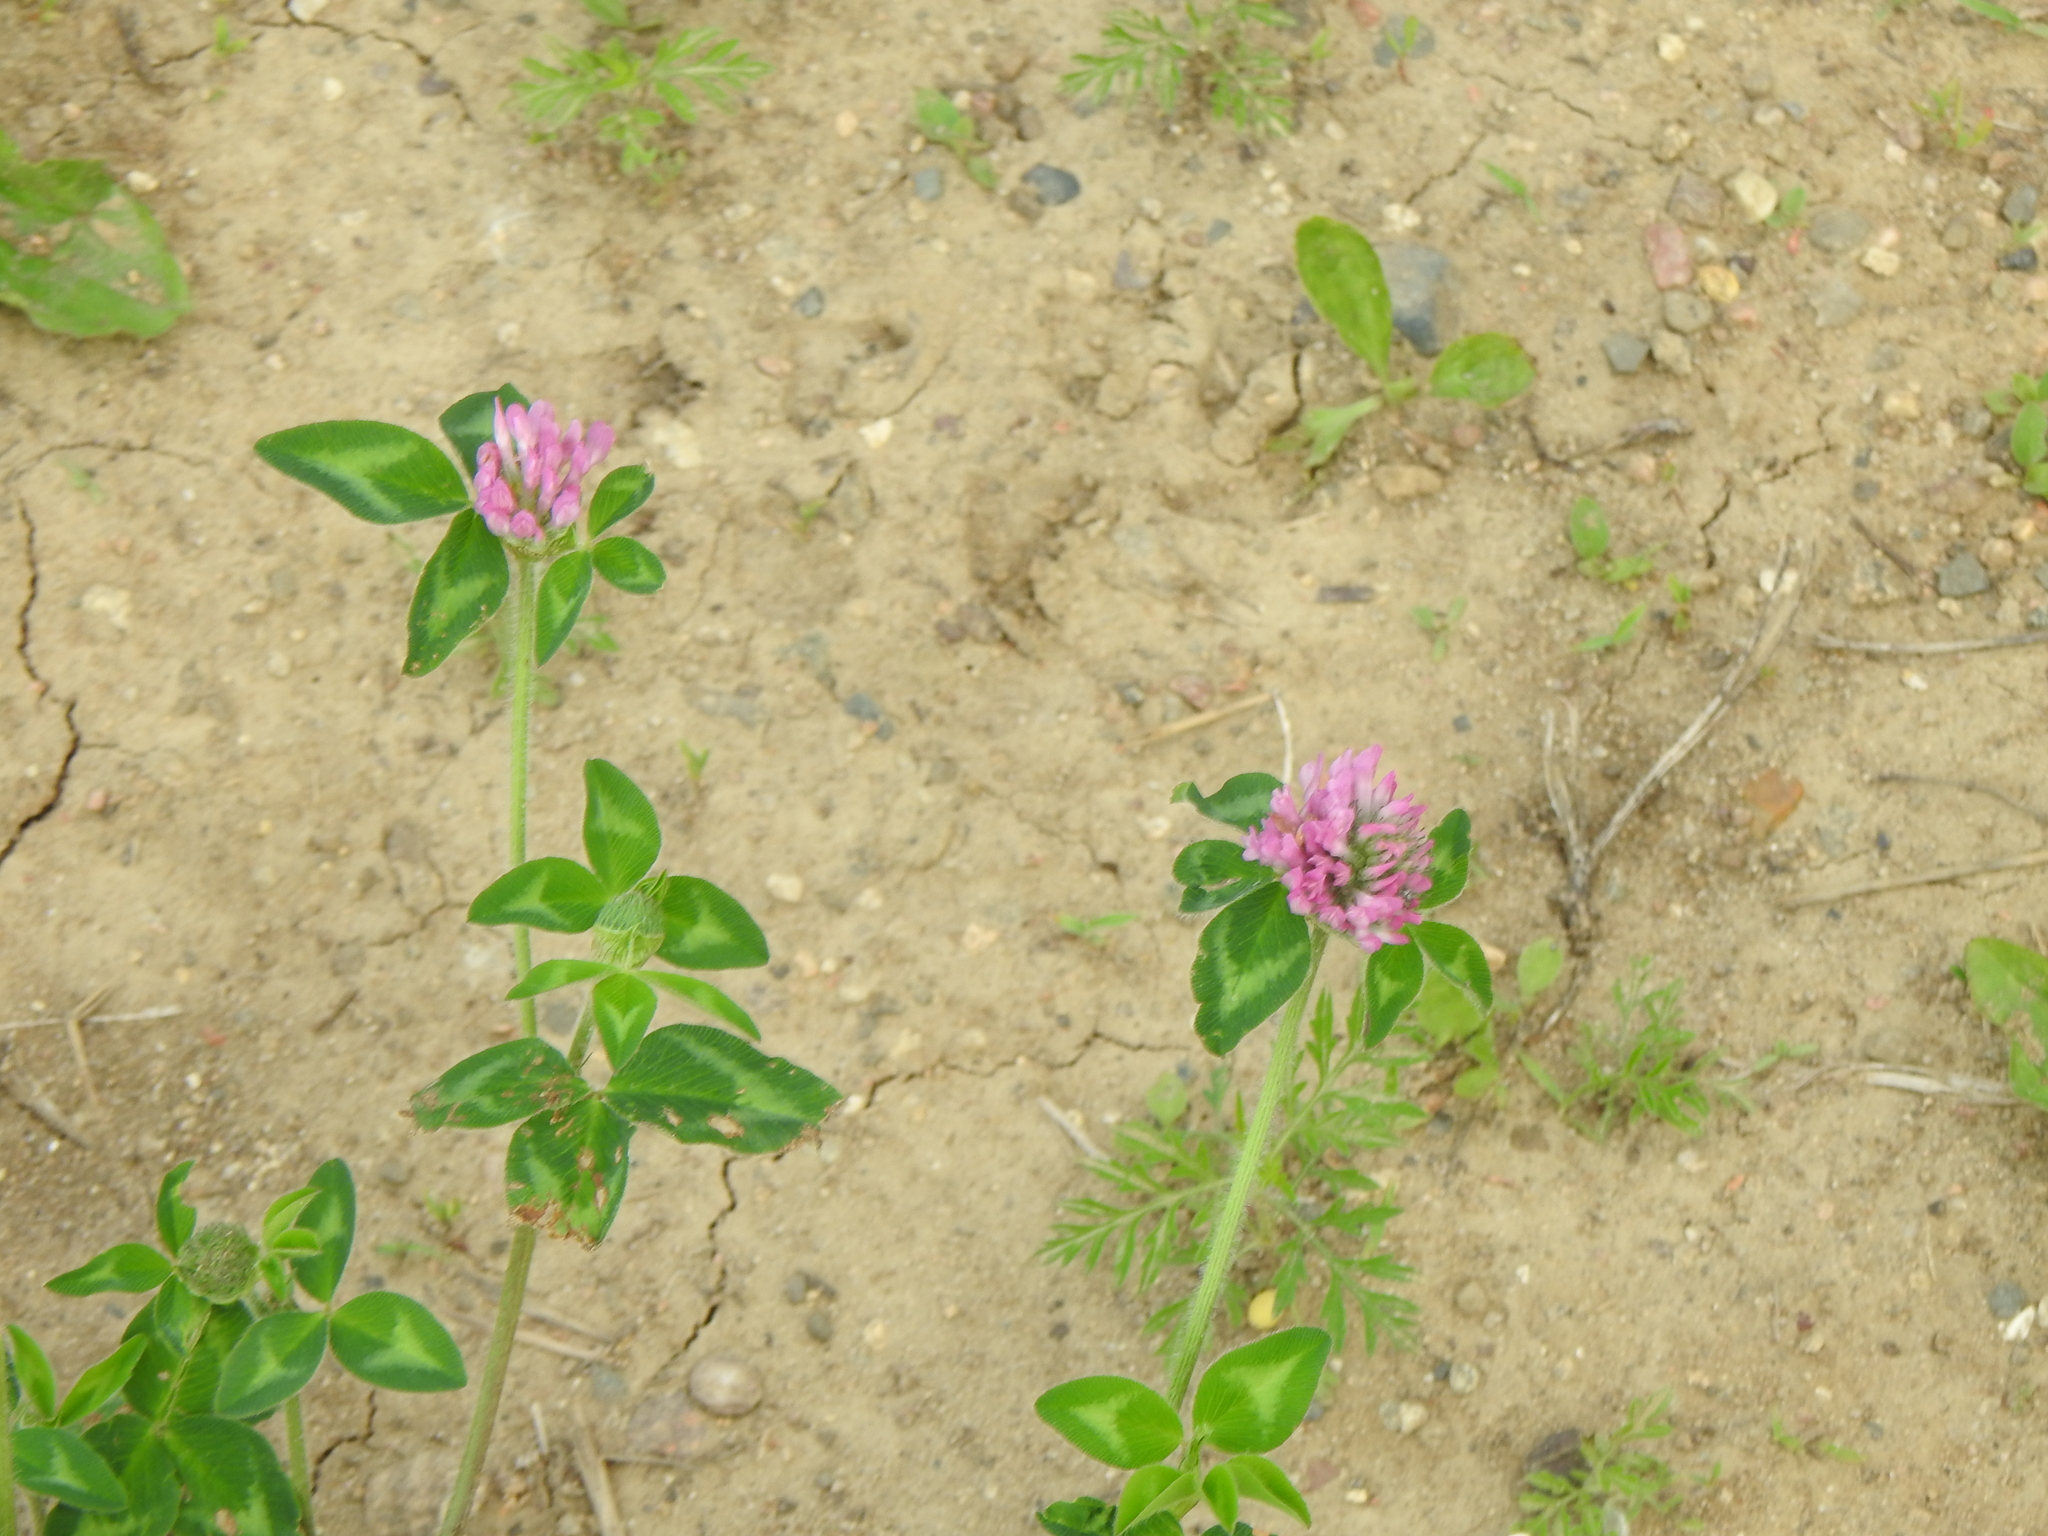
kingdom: Plantae
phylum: Tracheophyta
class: Magnoliopsida
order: Fabales
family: Fabaceae
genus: Trifolium
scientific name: Trifolium pratense
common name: Red clover
